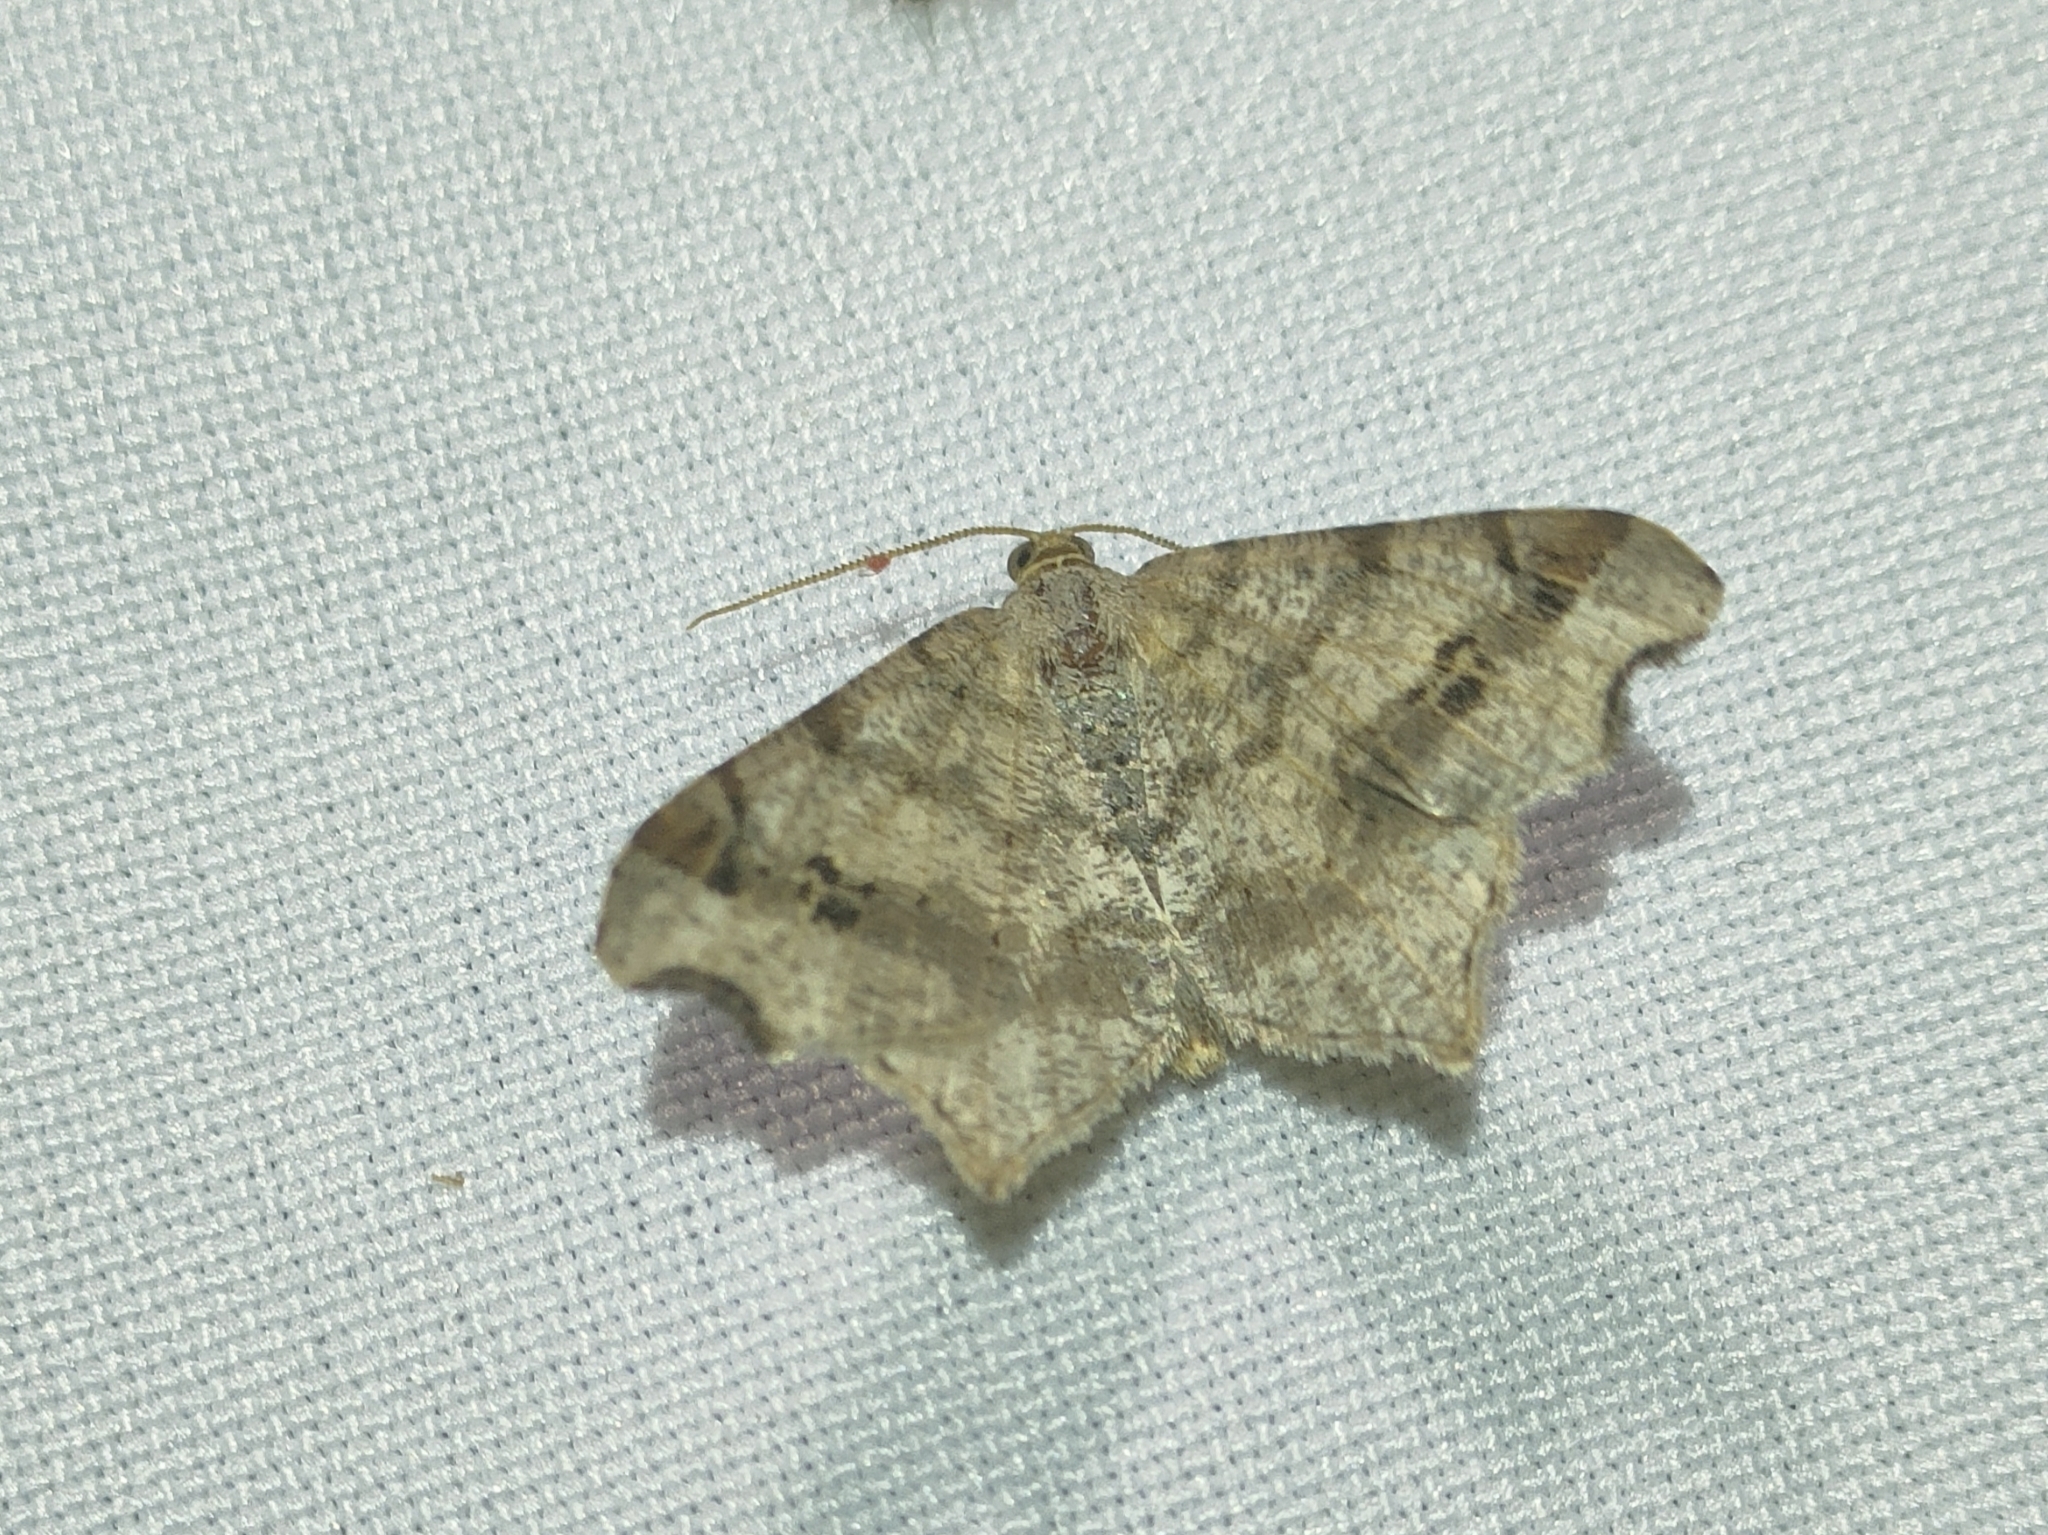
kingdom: Animalia
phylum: Arthropoda
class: Insecta
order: Lepidoptera
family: Geometridae
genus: Macaria
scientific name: Macaria alternata
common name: Sharp-angled peacock
